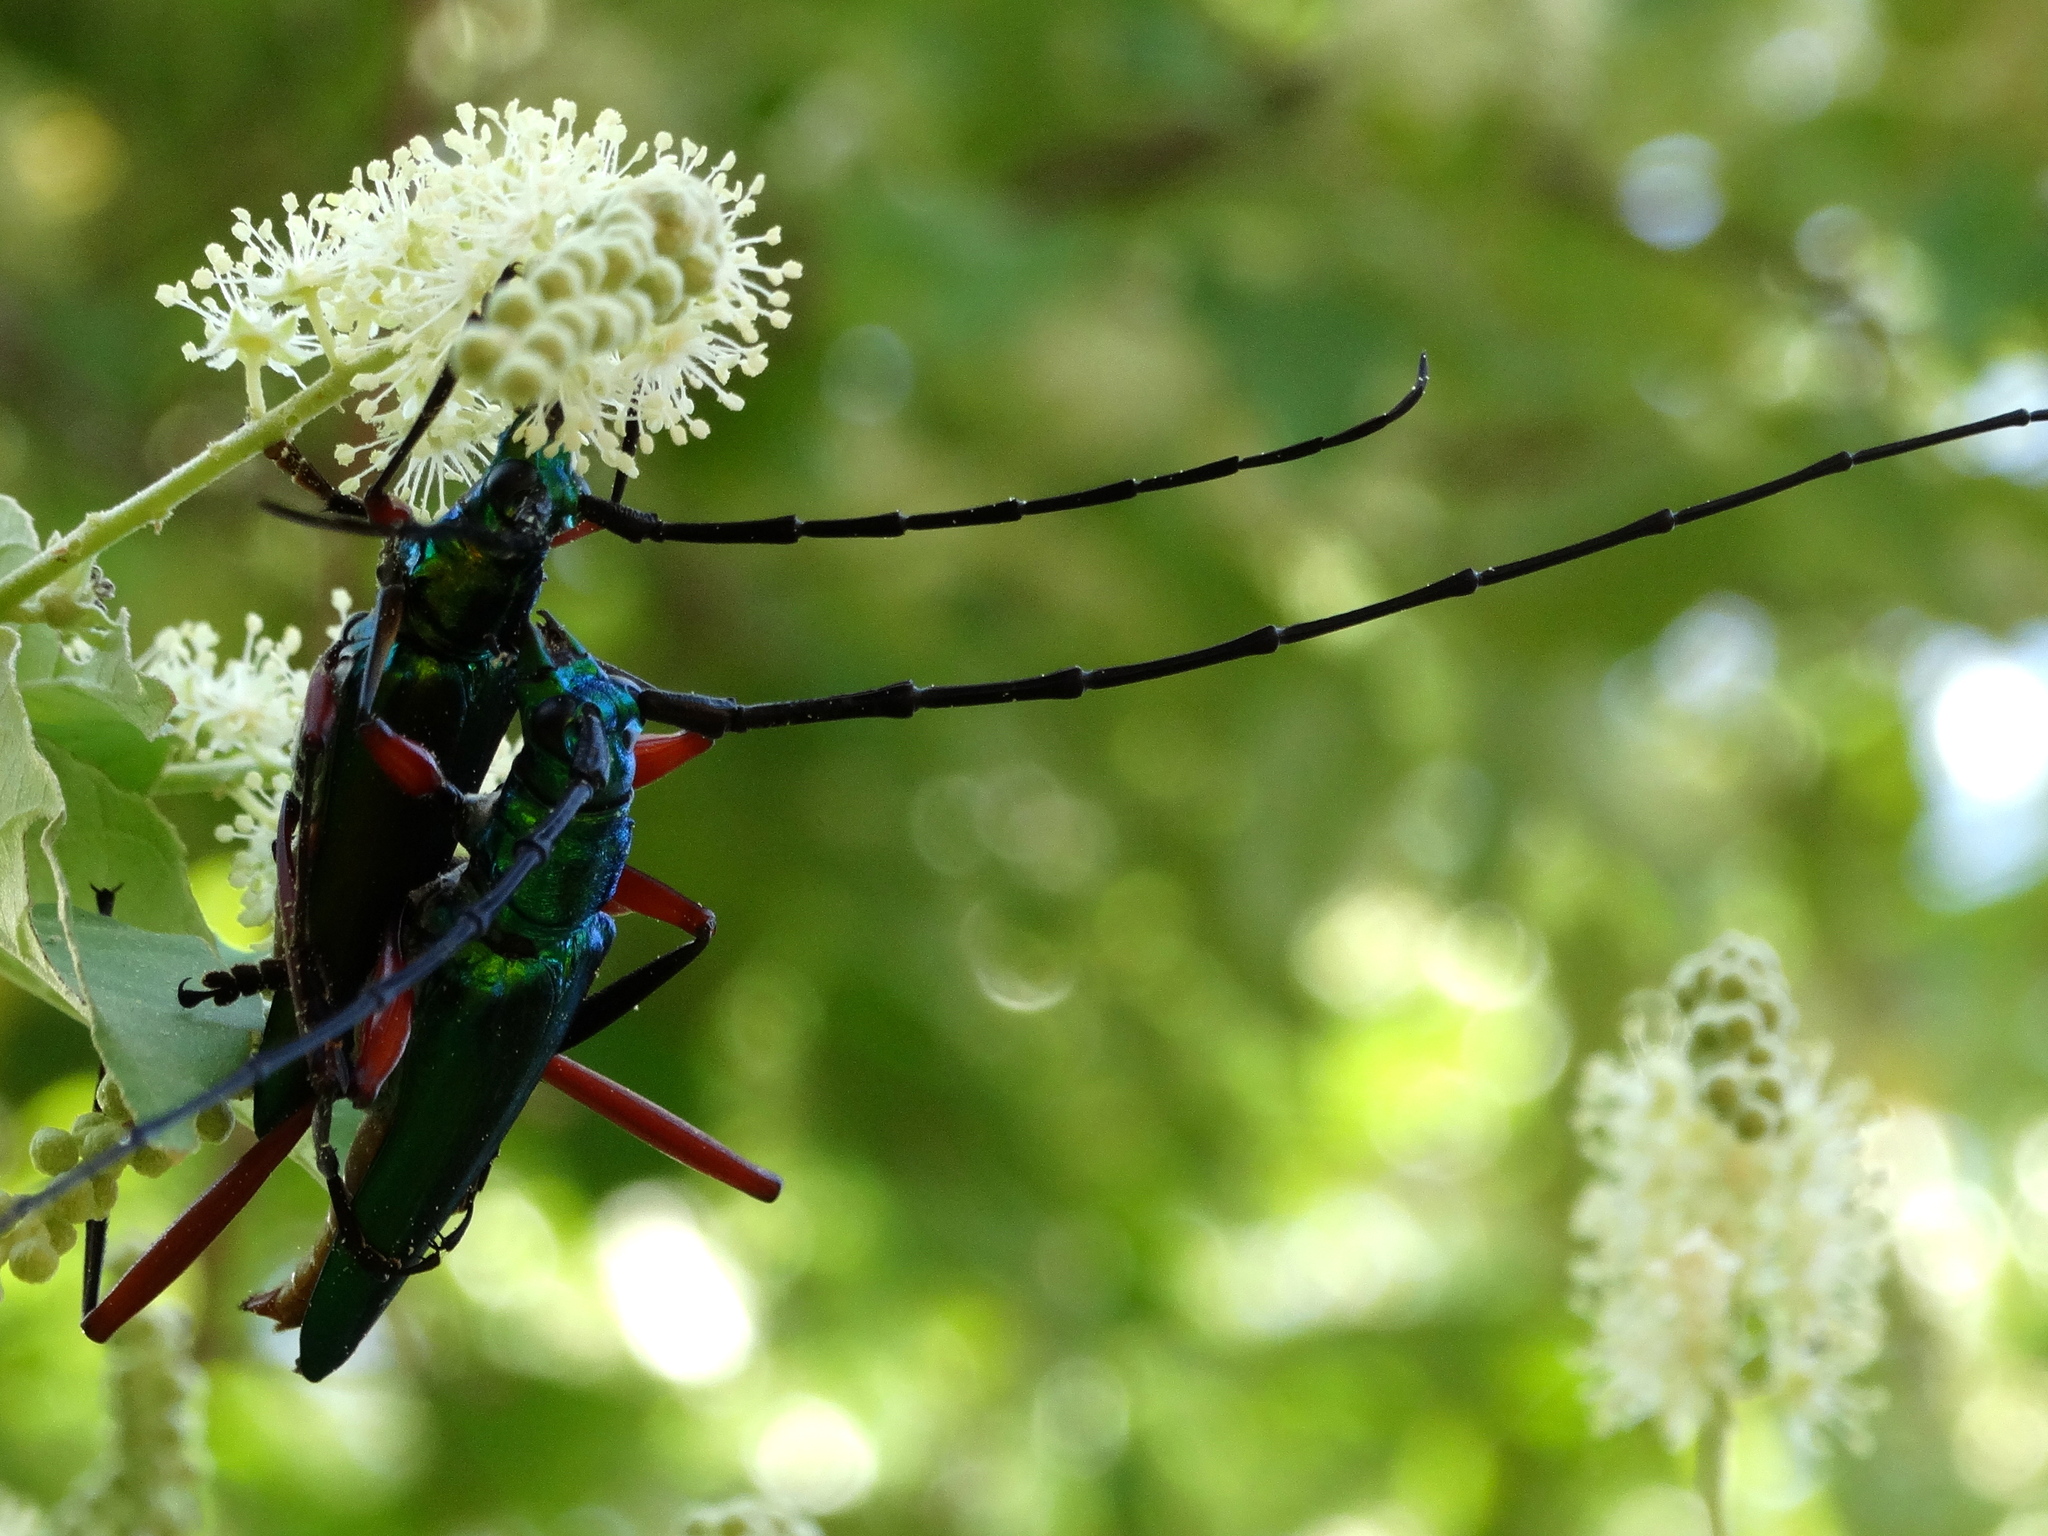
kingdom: Animalia
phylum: Arthropoda
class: Insecta
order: Coleoptera
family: Cerambycidae
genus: Plinthocoelium
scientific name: Plinthocoelium chilensis
